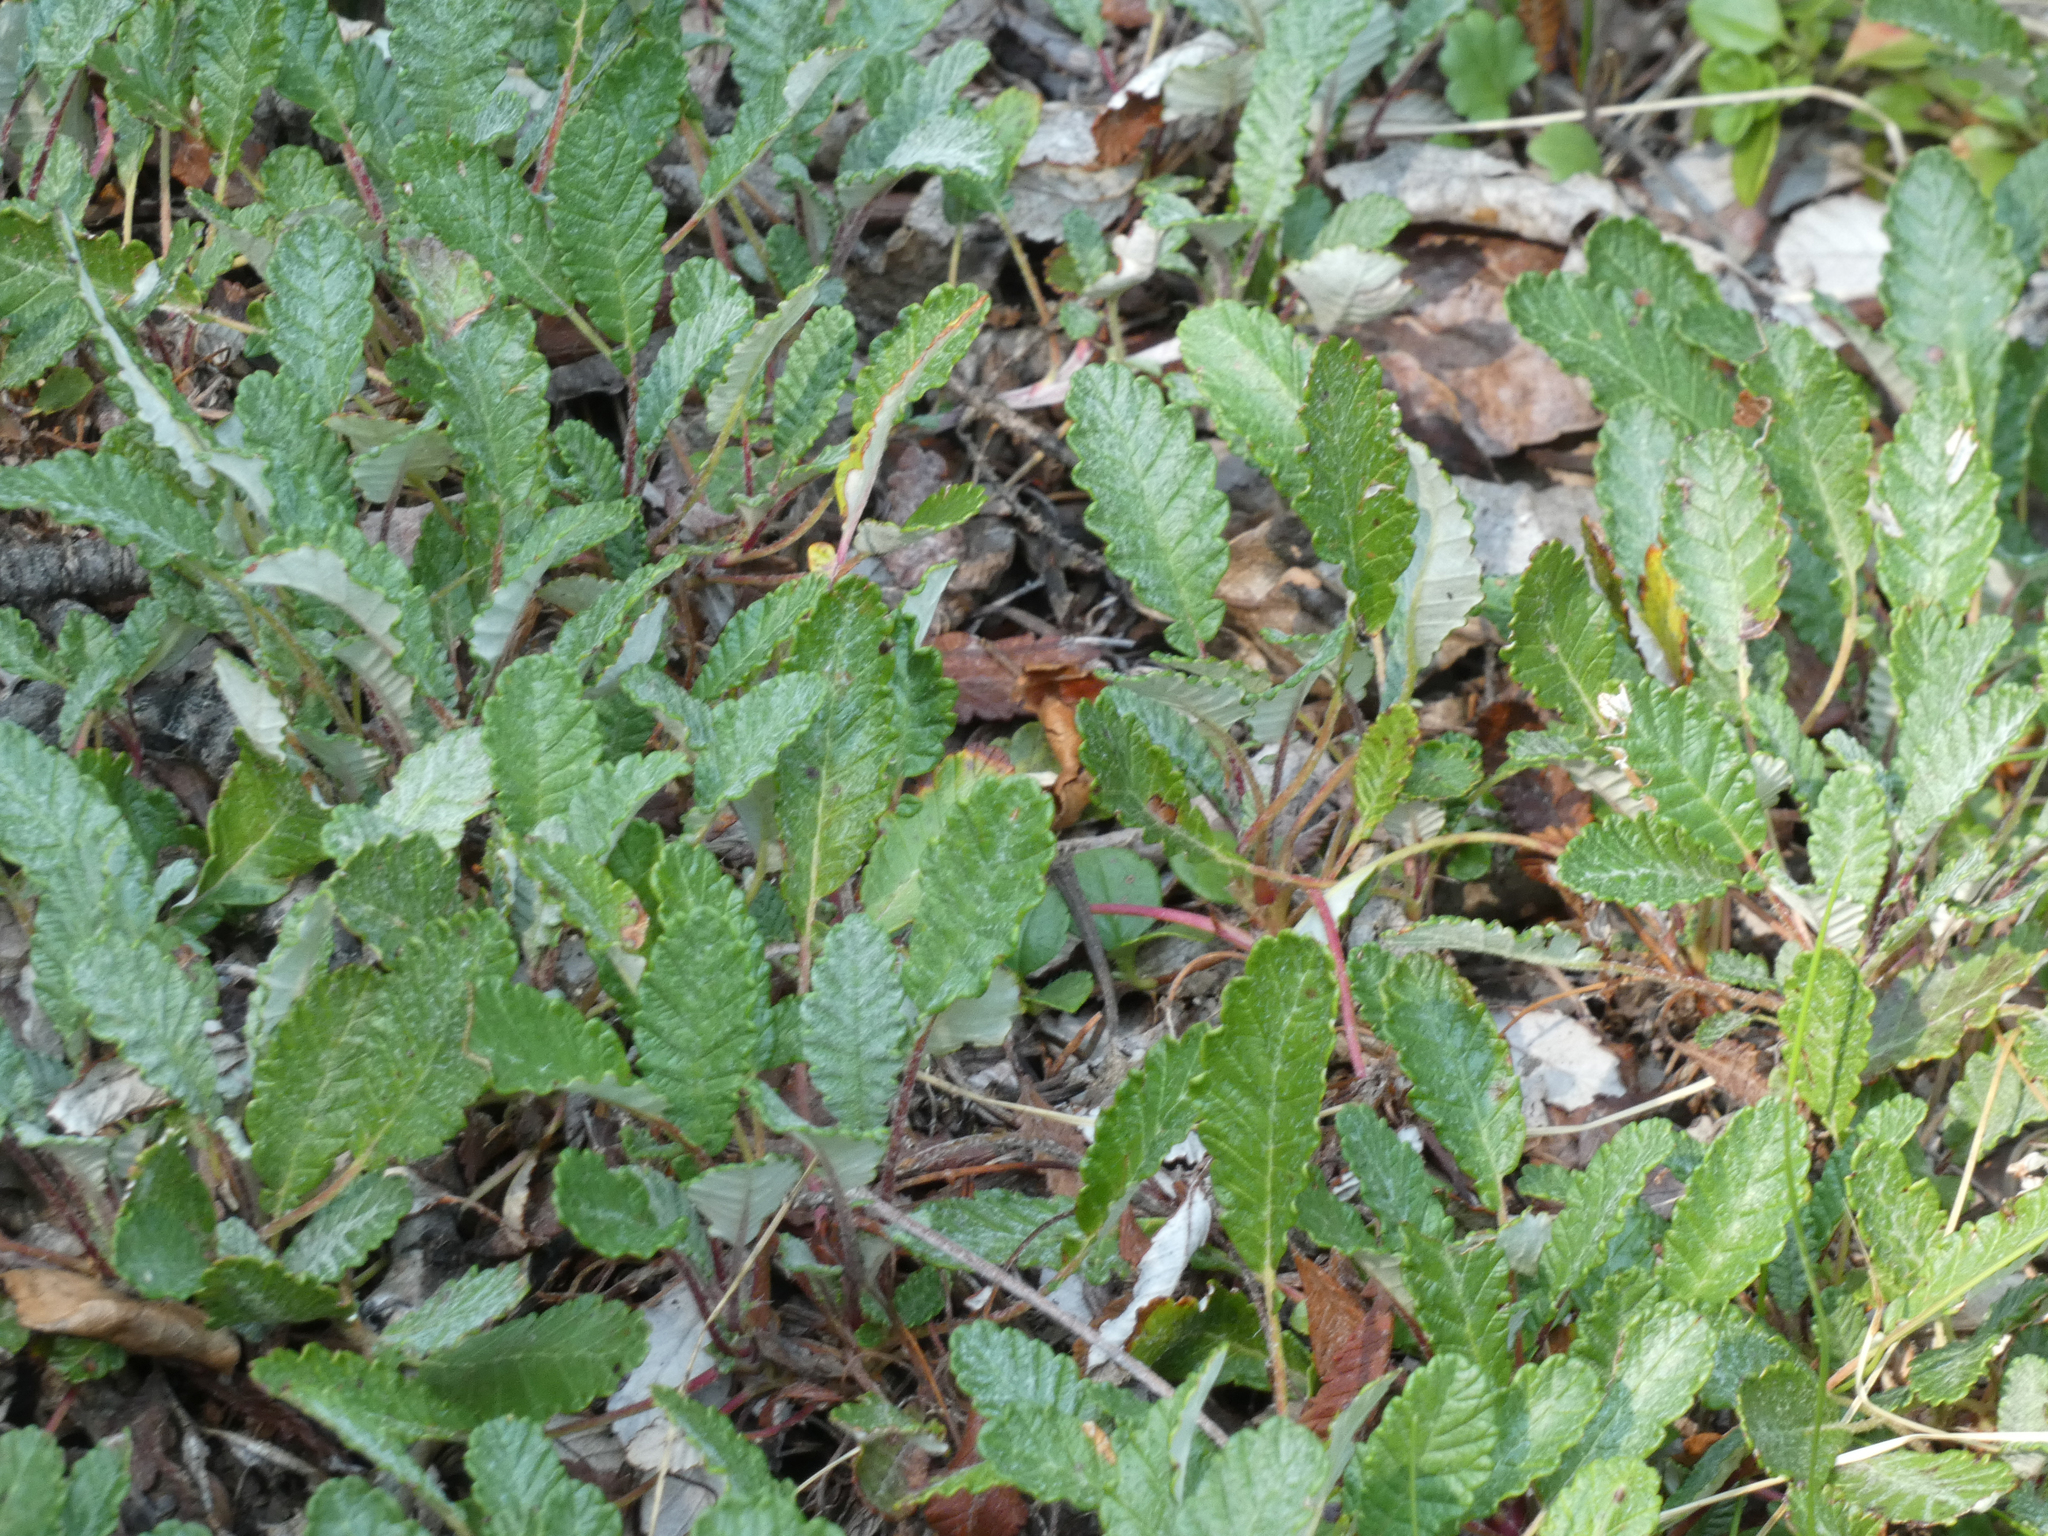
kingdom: Plantae
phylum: Tracheophyta
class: Magnoliopsida
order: Rosales
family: Rosaceae
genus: Dryas
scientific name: Dryas drummondii
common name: Drummond's dryad
